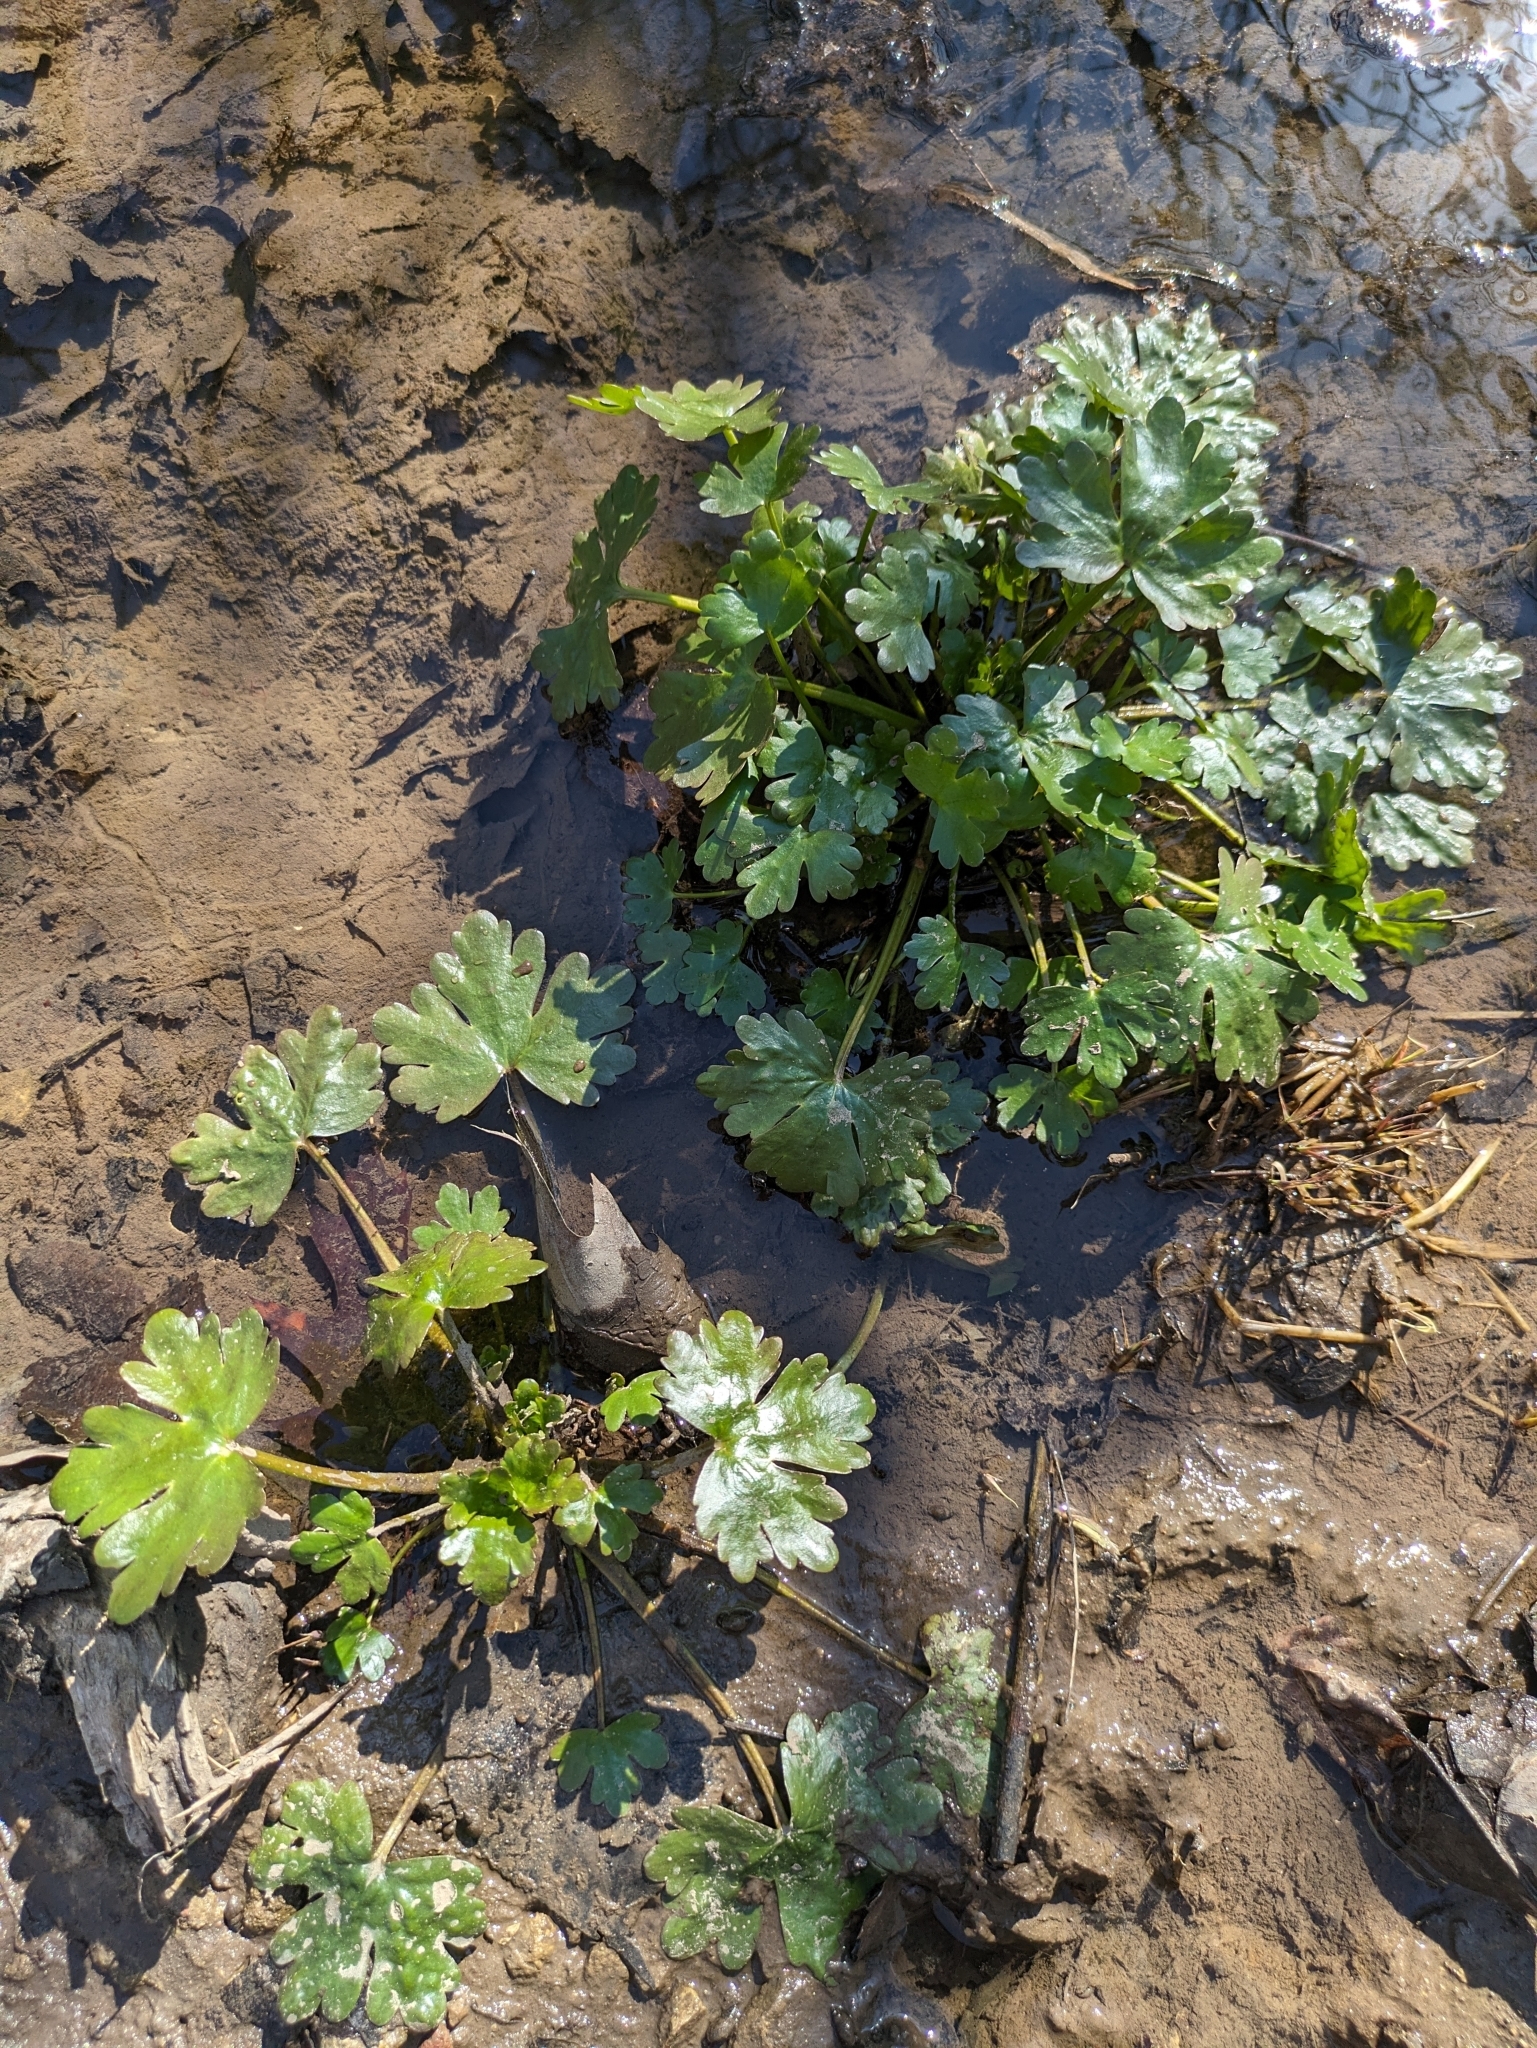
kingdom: Plantae
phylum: Tracheophyta
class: Magnoliopsida
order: Ranunculales
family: Ranunculaceae
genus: Ranunculus
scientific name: Ranunculus sceleratus
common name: Celery-leaved buttercup
